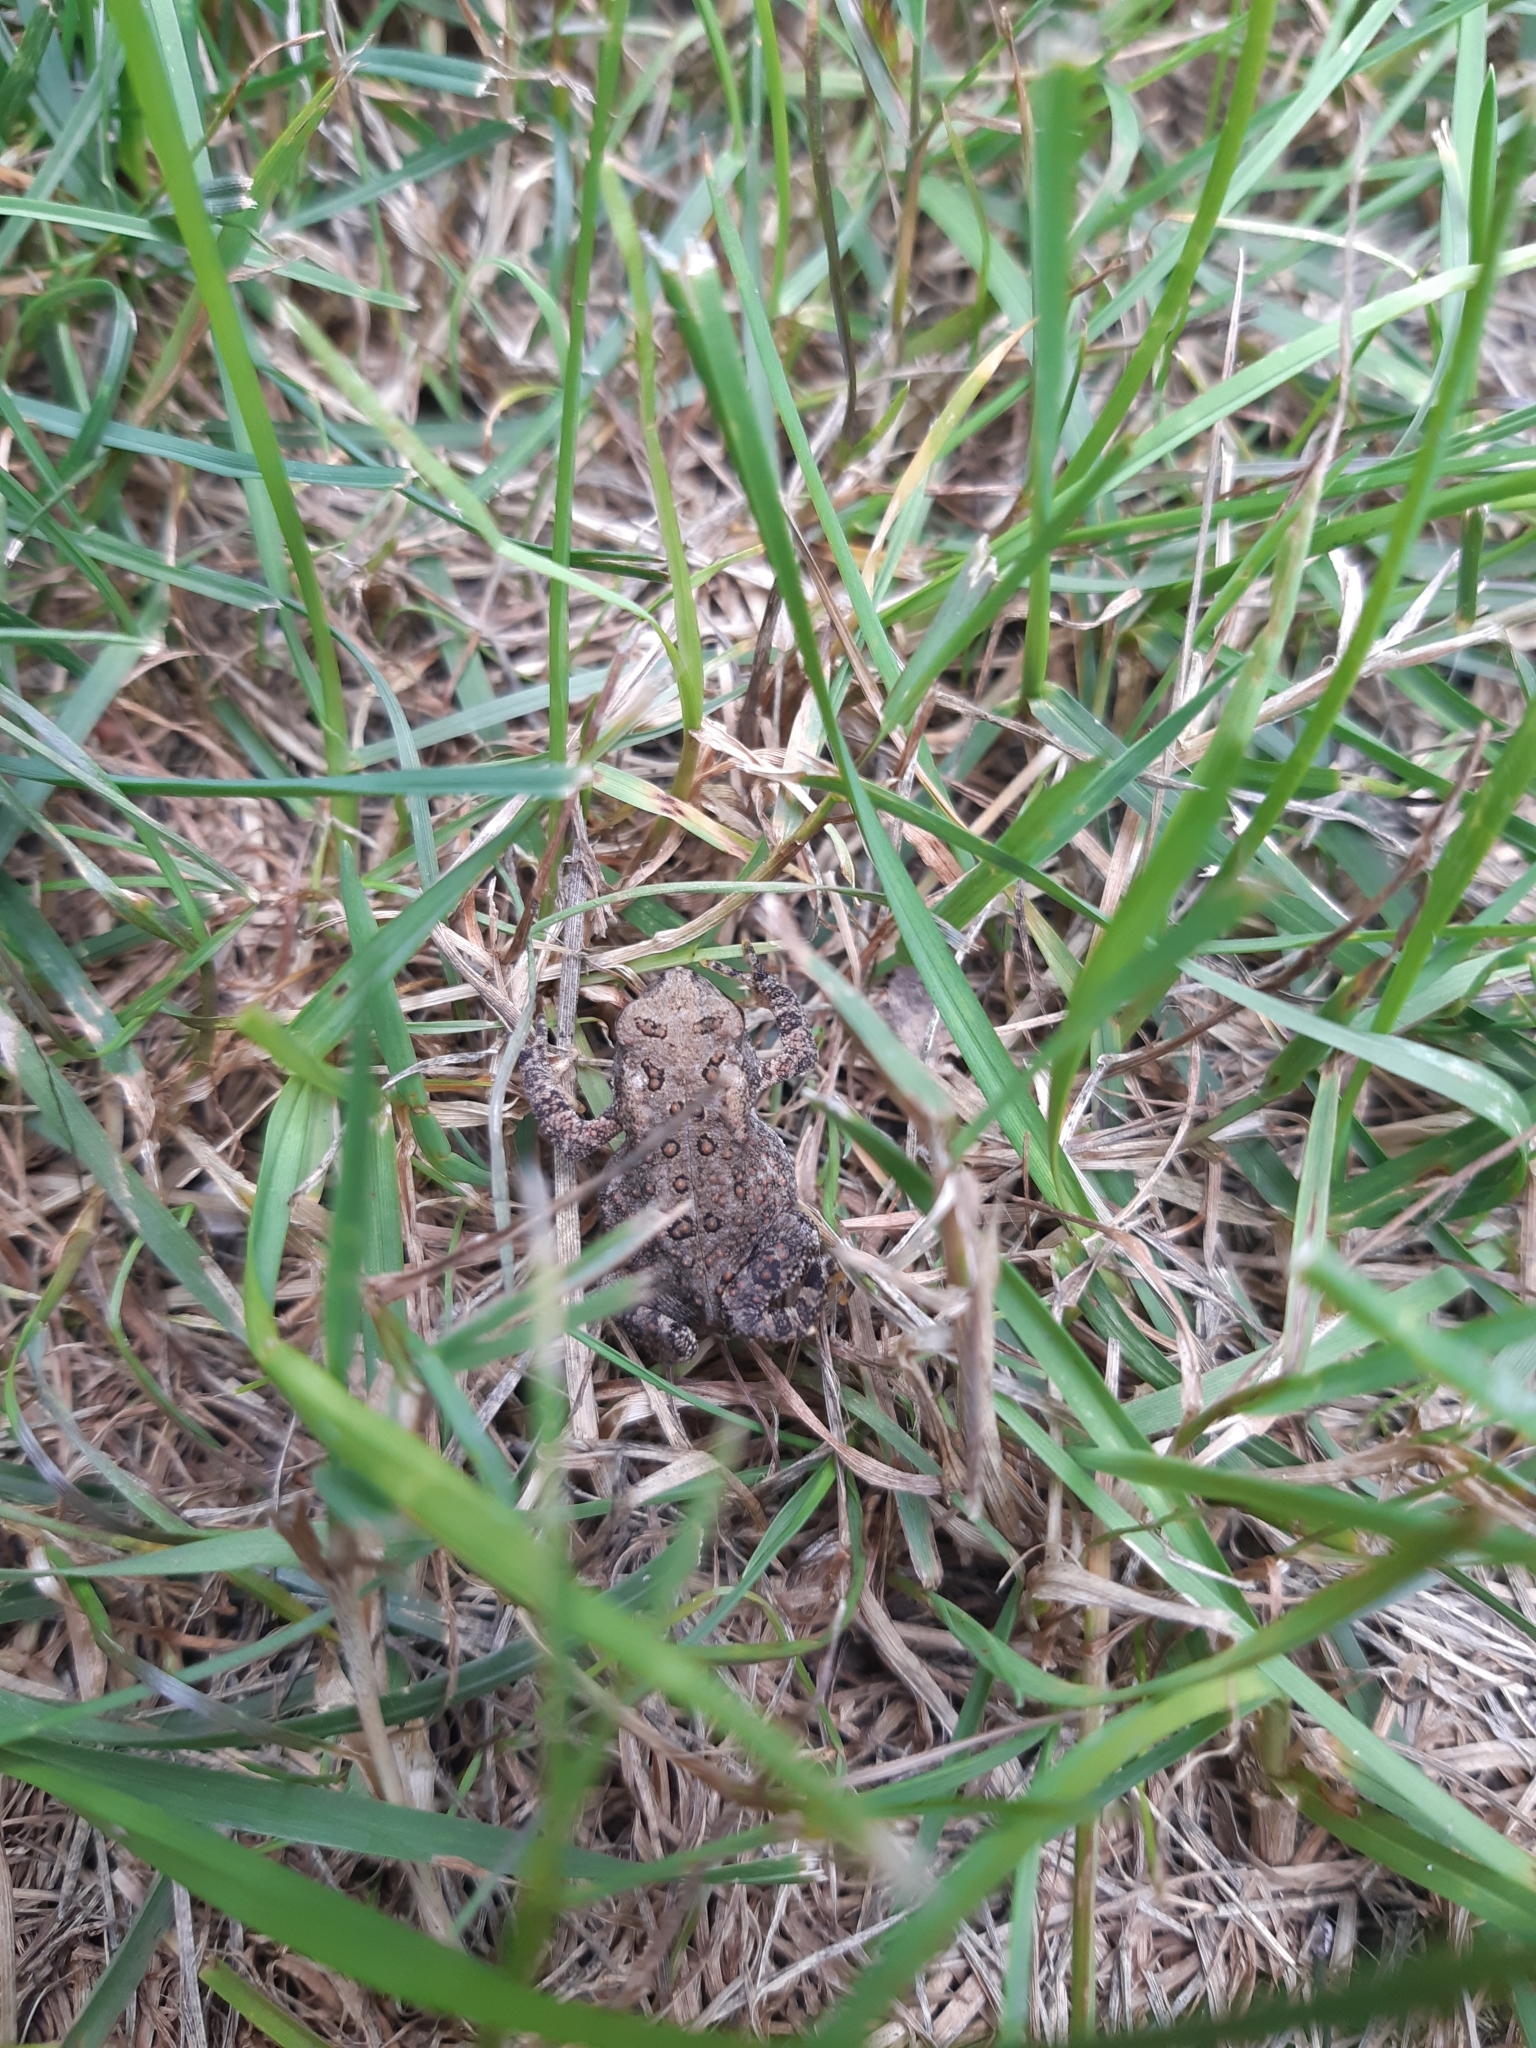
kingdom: Animalia
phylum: Chordata
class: Amphibia
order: Anura
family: Bufonidae
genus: Anaxyrus
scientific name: Anaxyrus americanus
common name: American toad
